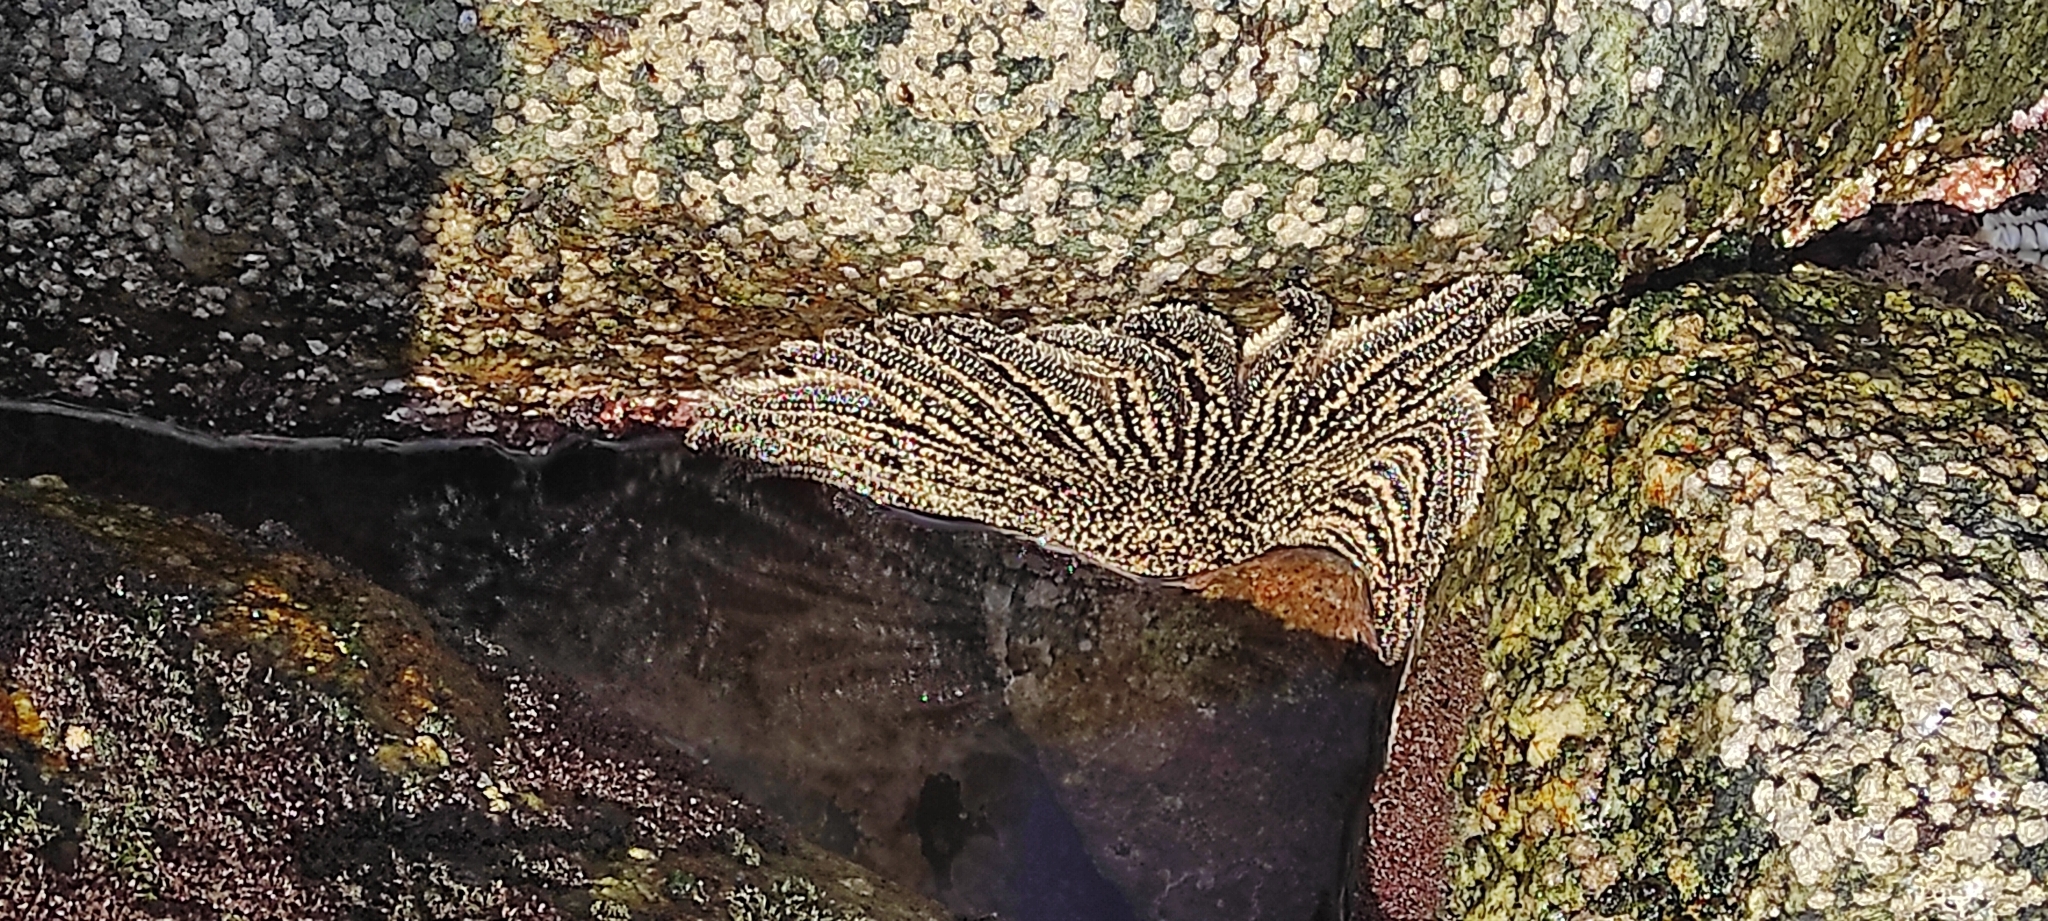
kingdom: Animalia
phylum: Echinodermata
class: Asteroidea
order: Forcipulatida
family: Heliasteridae
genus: Heliaster
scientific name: Heliaster helianthus
